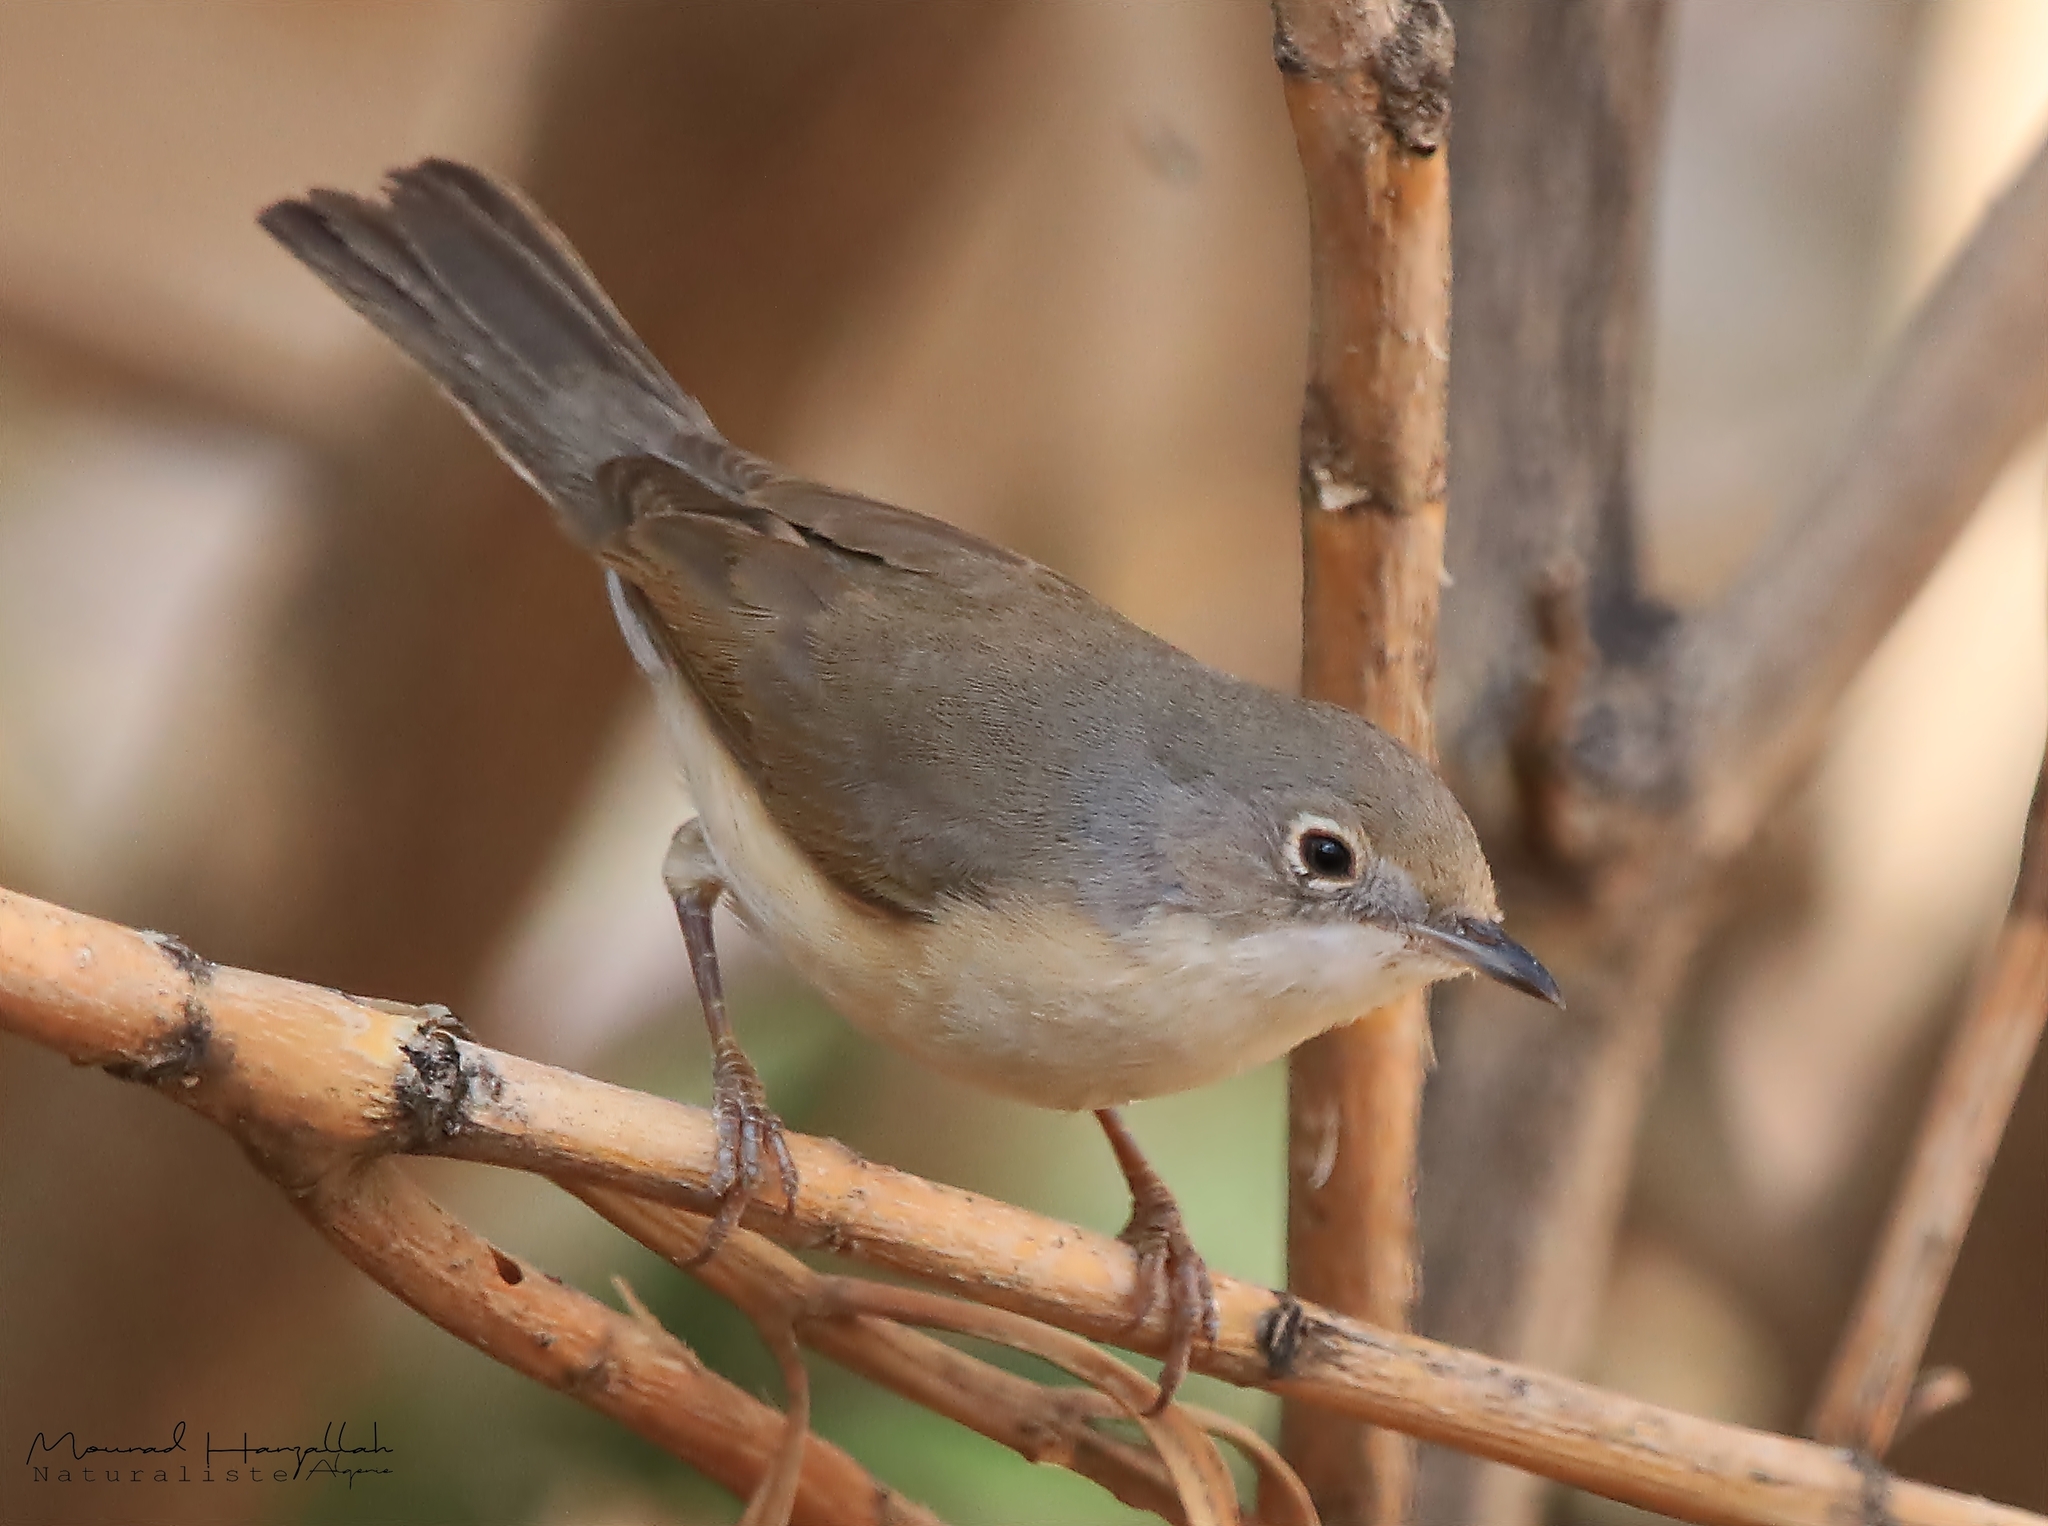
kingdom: Animalia
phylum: Chordata
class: Aves
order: Passeriformes
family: Sylviidae
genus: Curruca
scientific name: Curruca subalpina
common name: Moltoni's warbler
